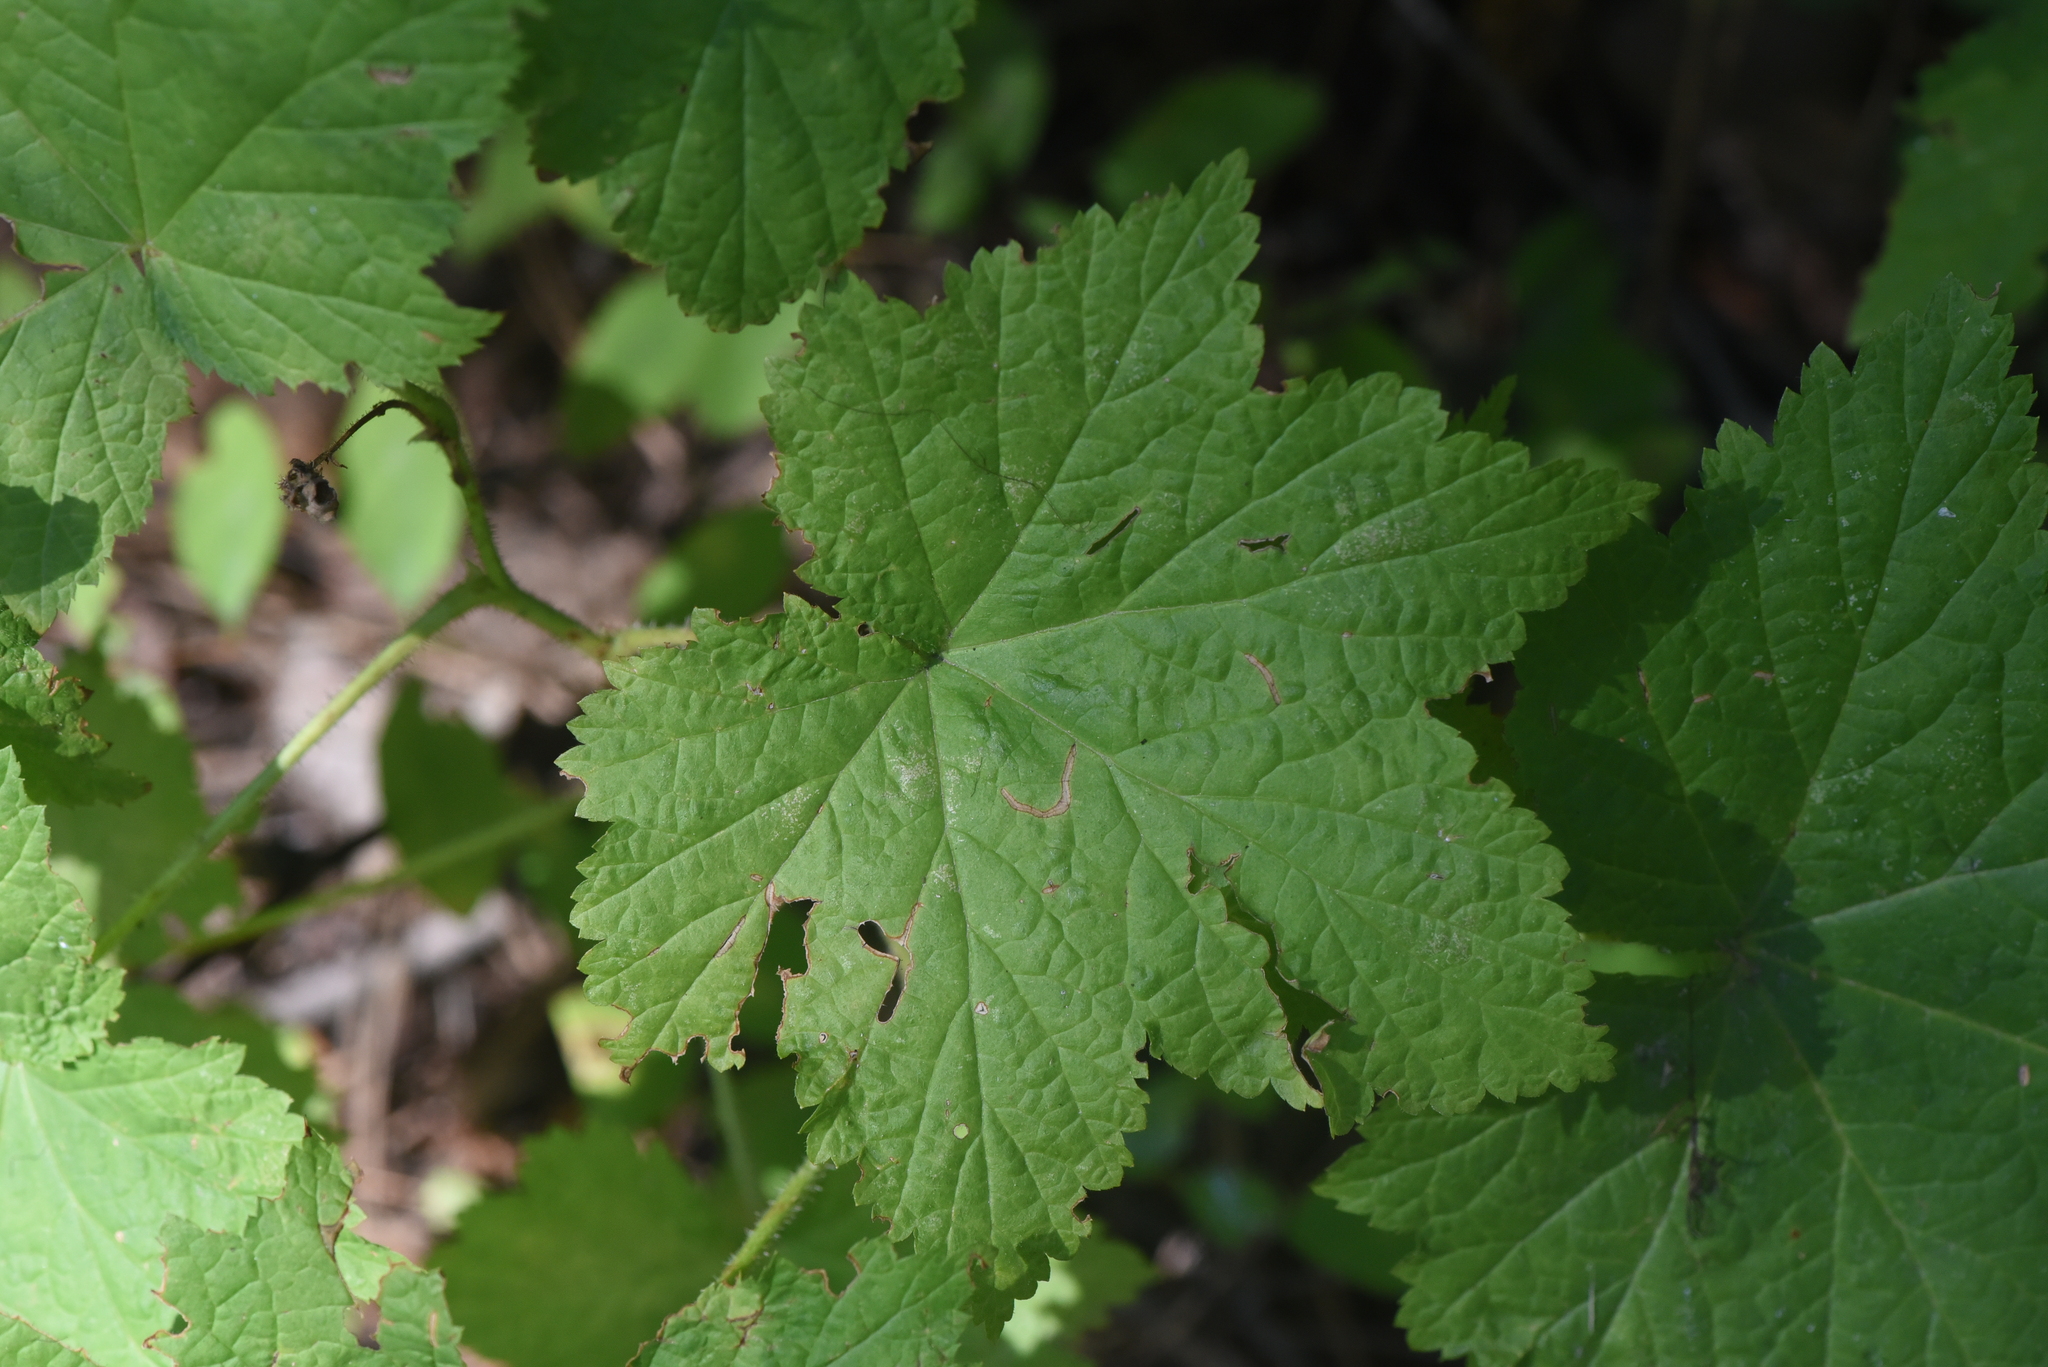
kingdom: Plantae
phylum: Tracheophyta
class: Magnoliopsida
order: Rosales
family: Rosaceae
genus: Rubus
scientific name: Rubus parviflorus
